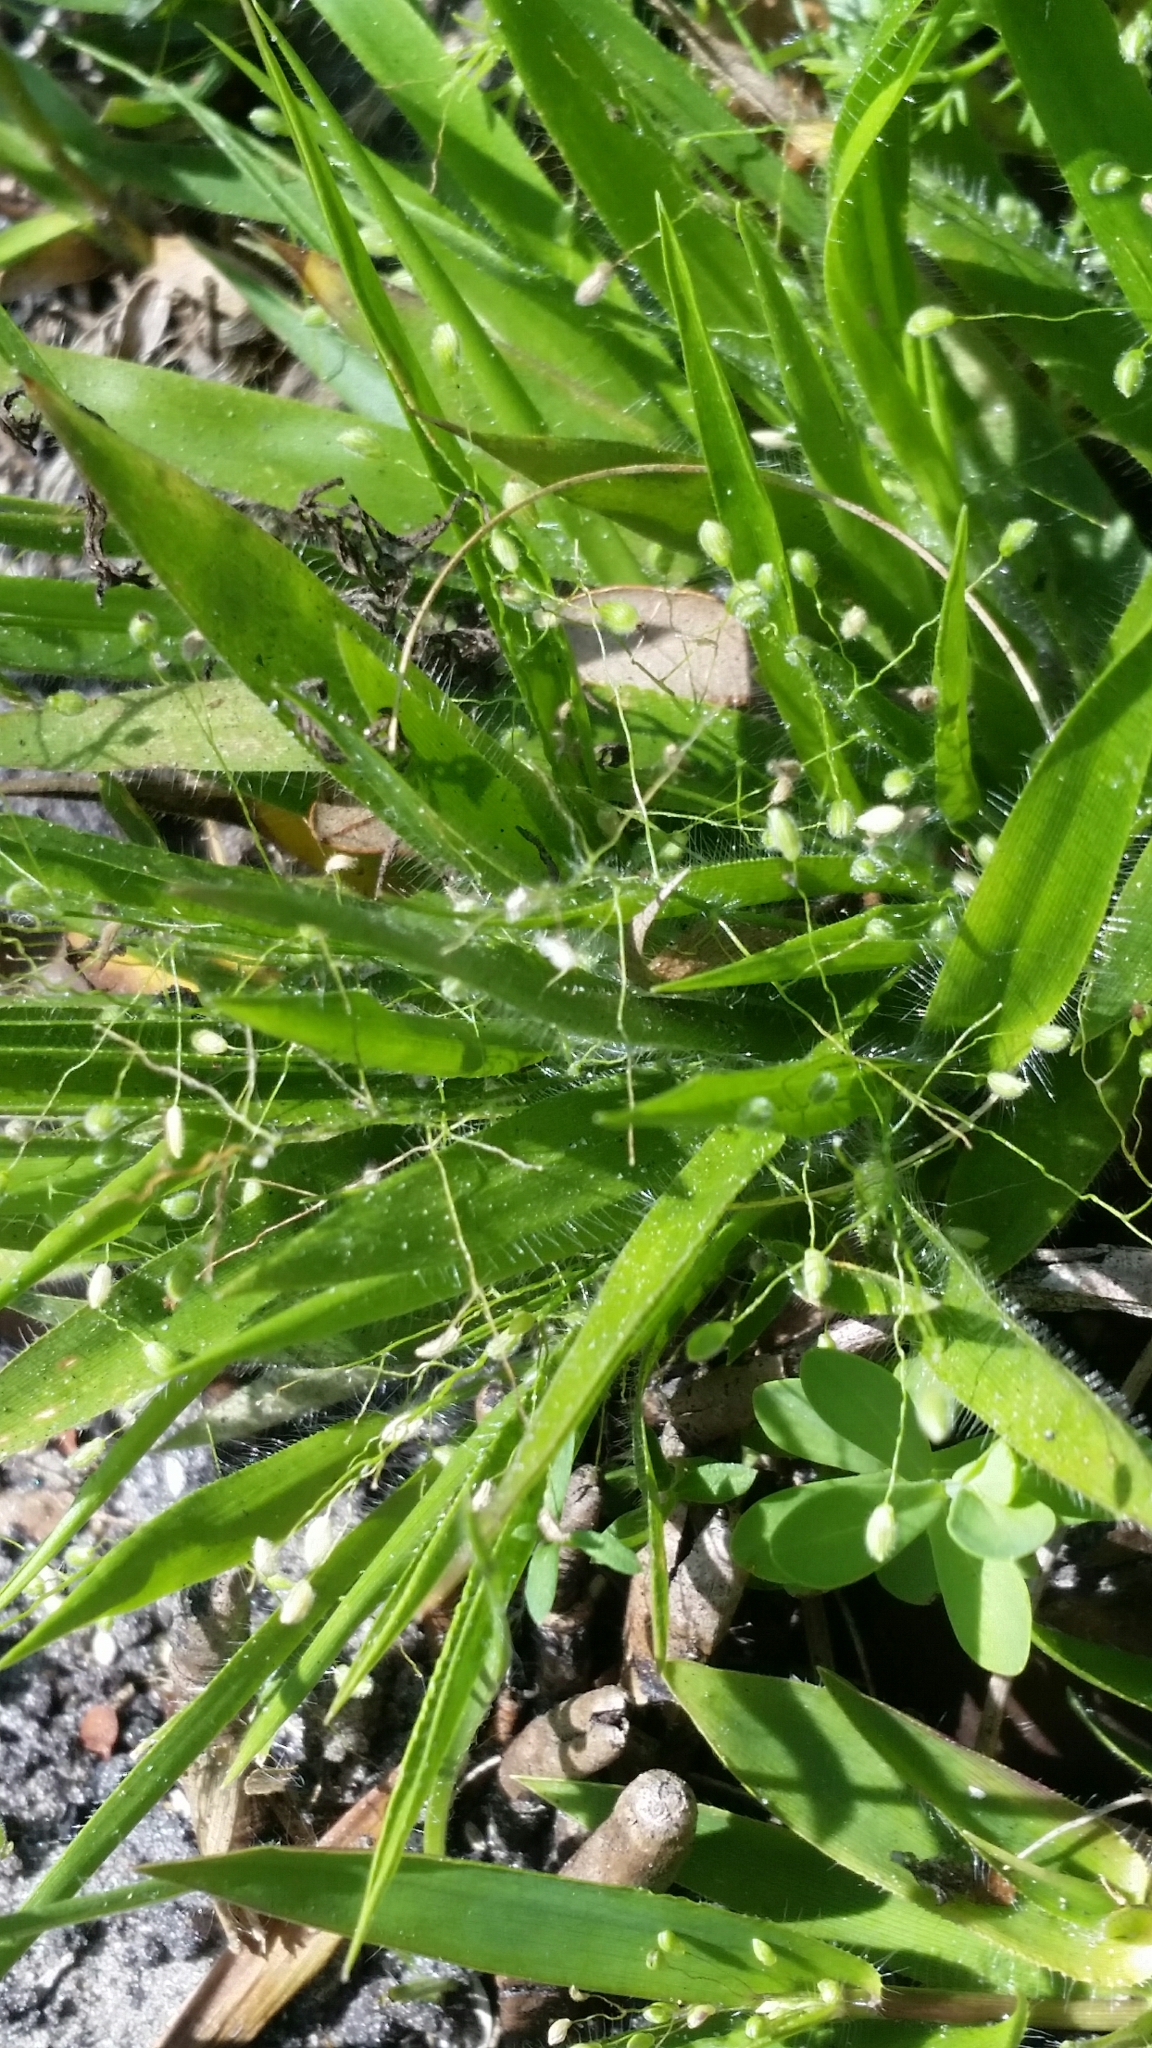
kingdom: Plantae
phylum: Tracheophyta
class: Liliopsida
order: Poales
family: Poaceae
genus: Dichanthelium
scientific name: Dichanthelium laxiflorum
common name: Soft-tuft panic grass
